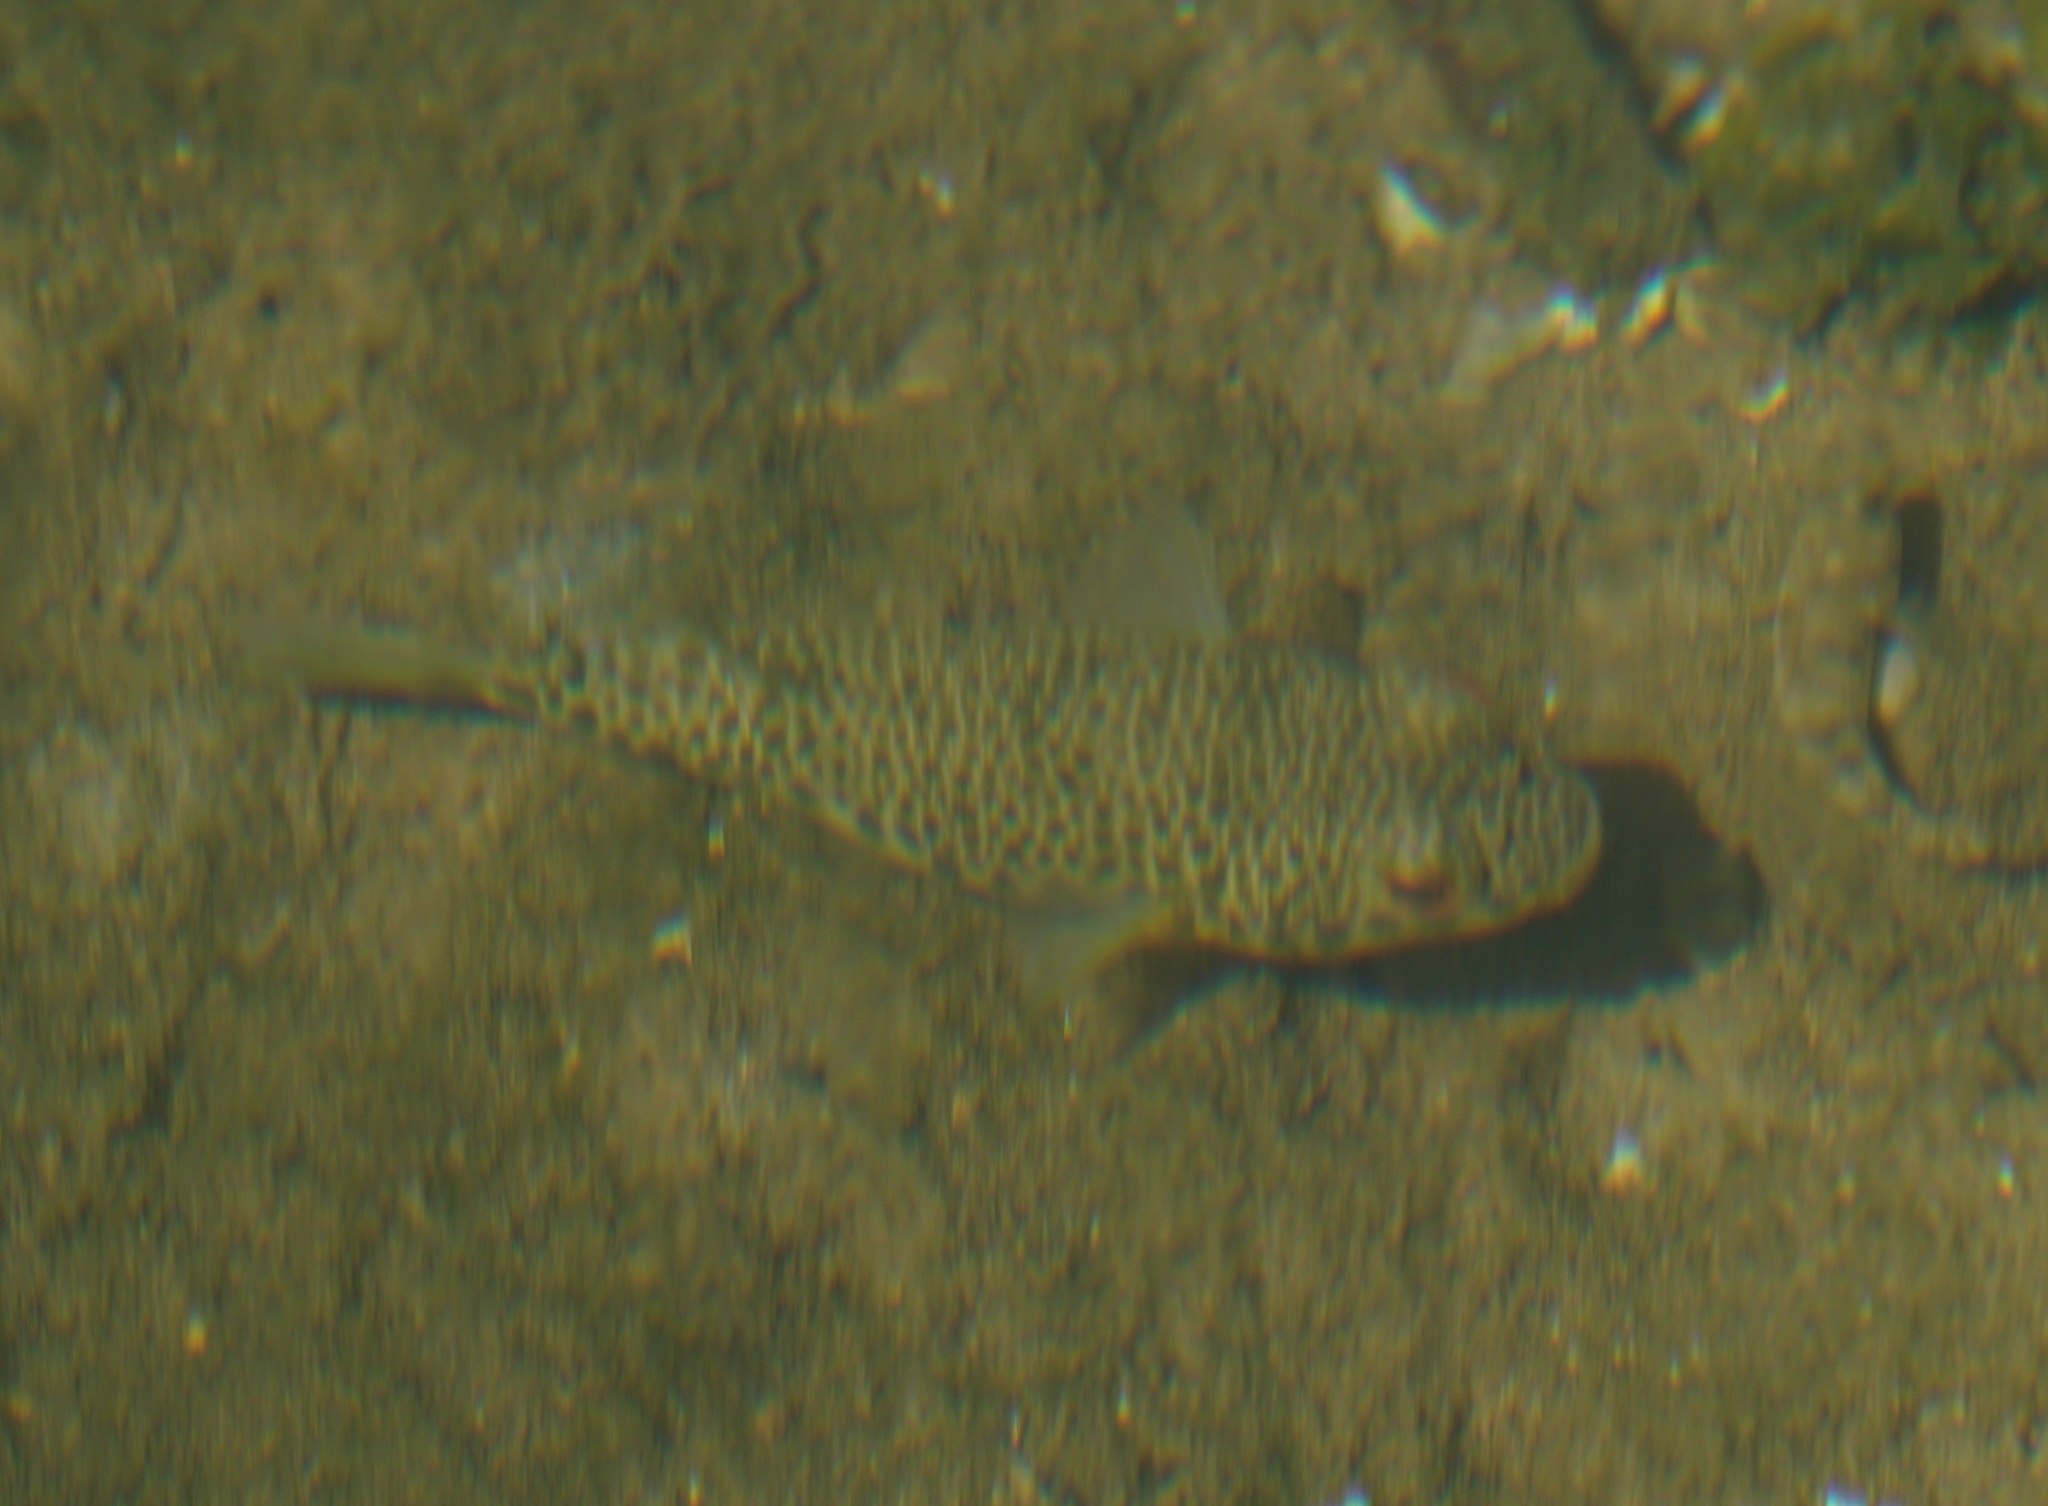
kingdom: Animalia
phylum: Chordata
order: Tetraodontiformes
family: Tetraodontidae
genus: Tetractenos
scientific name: Tetractenos hamiltoni
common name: Common toadfish
